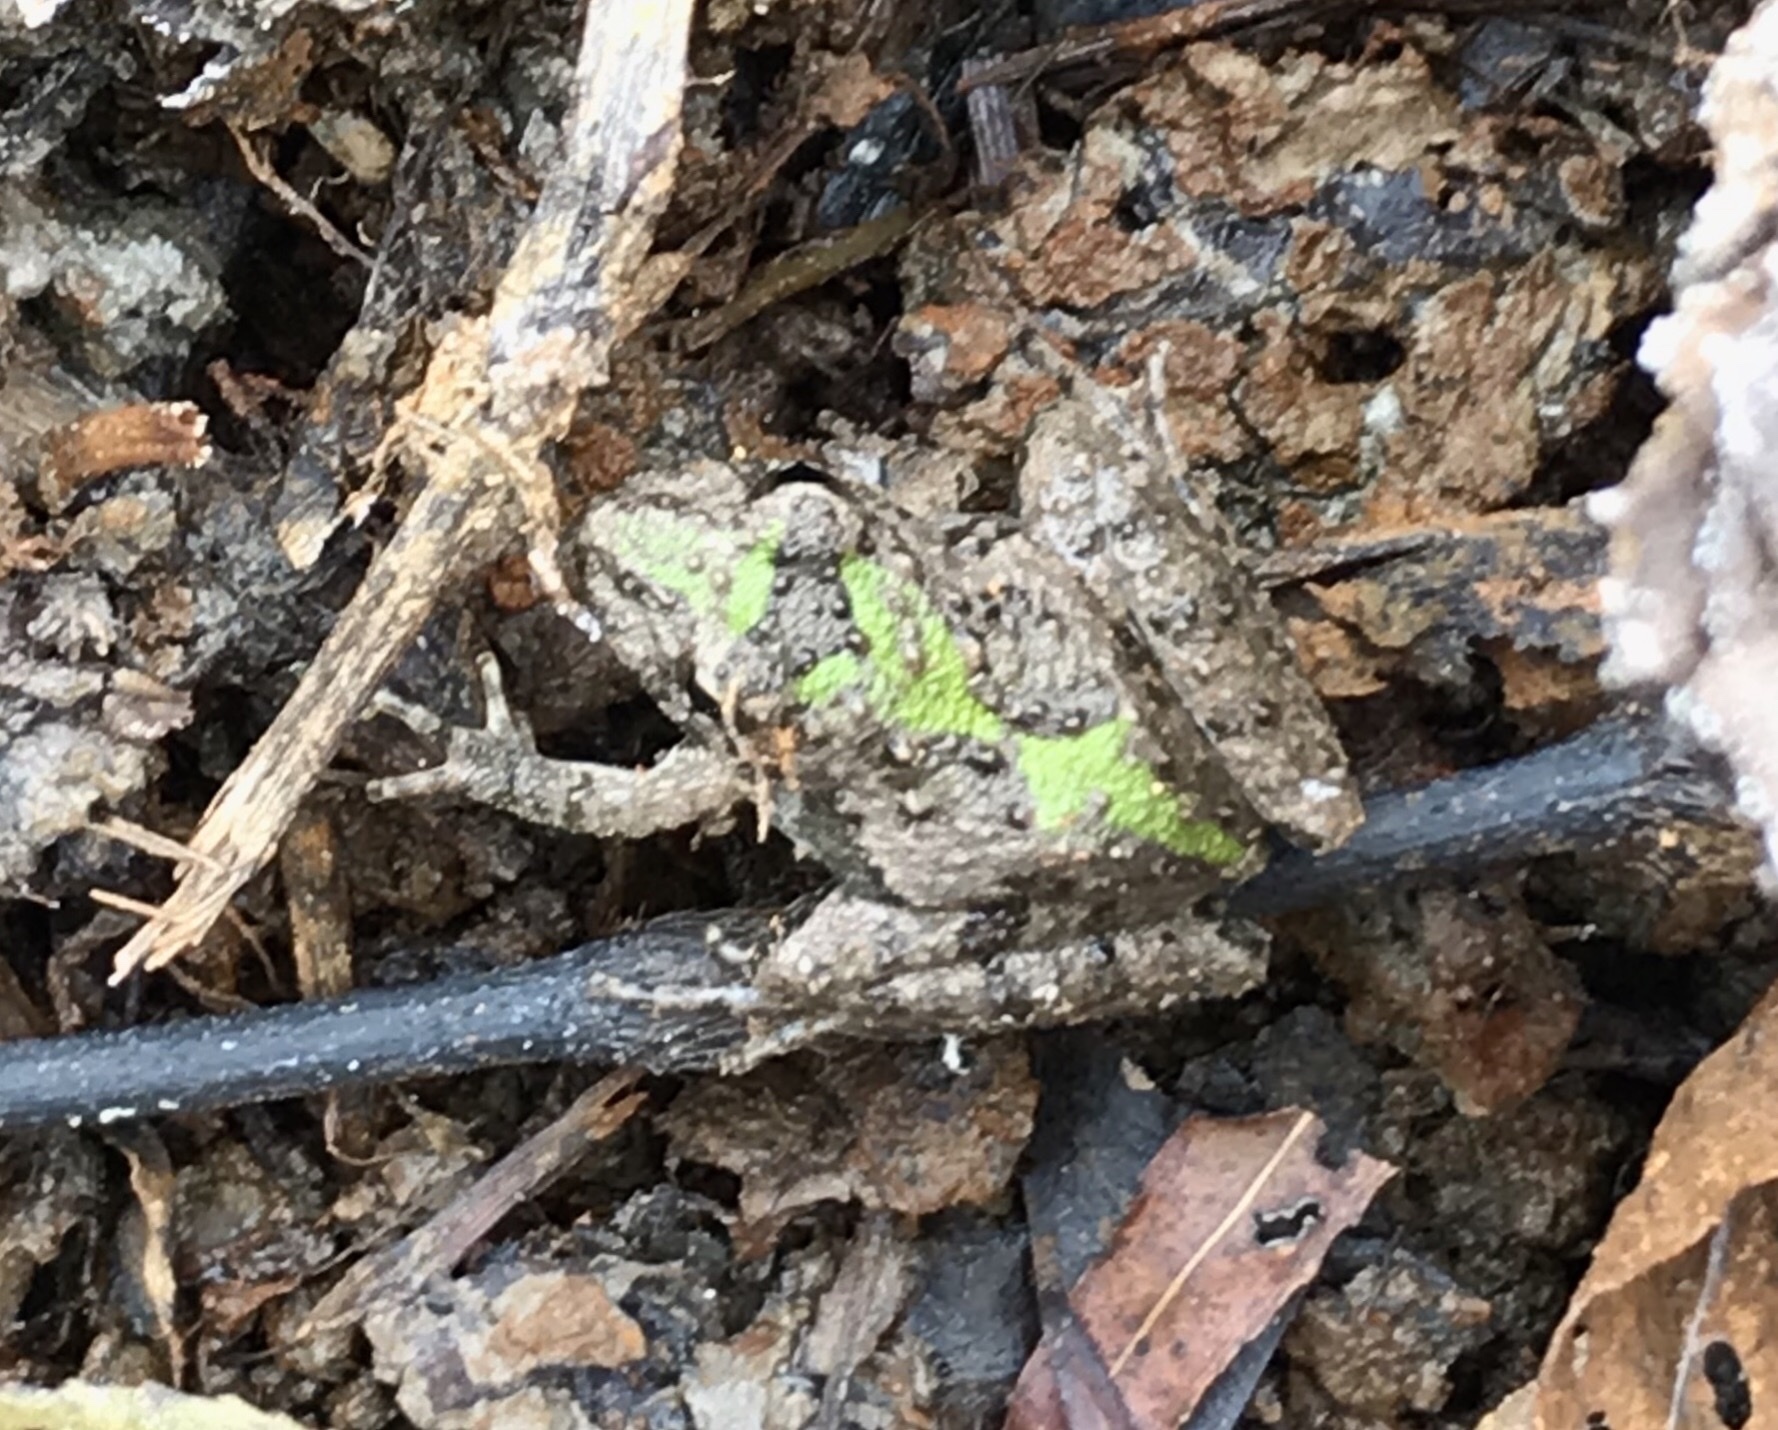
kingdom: Animalia
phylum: Chordata
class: Amphibia
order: Anura
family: Hylidae
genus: Acris
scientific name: Acris blanchardi
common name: Blanchard's cricket frog
